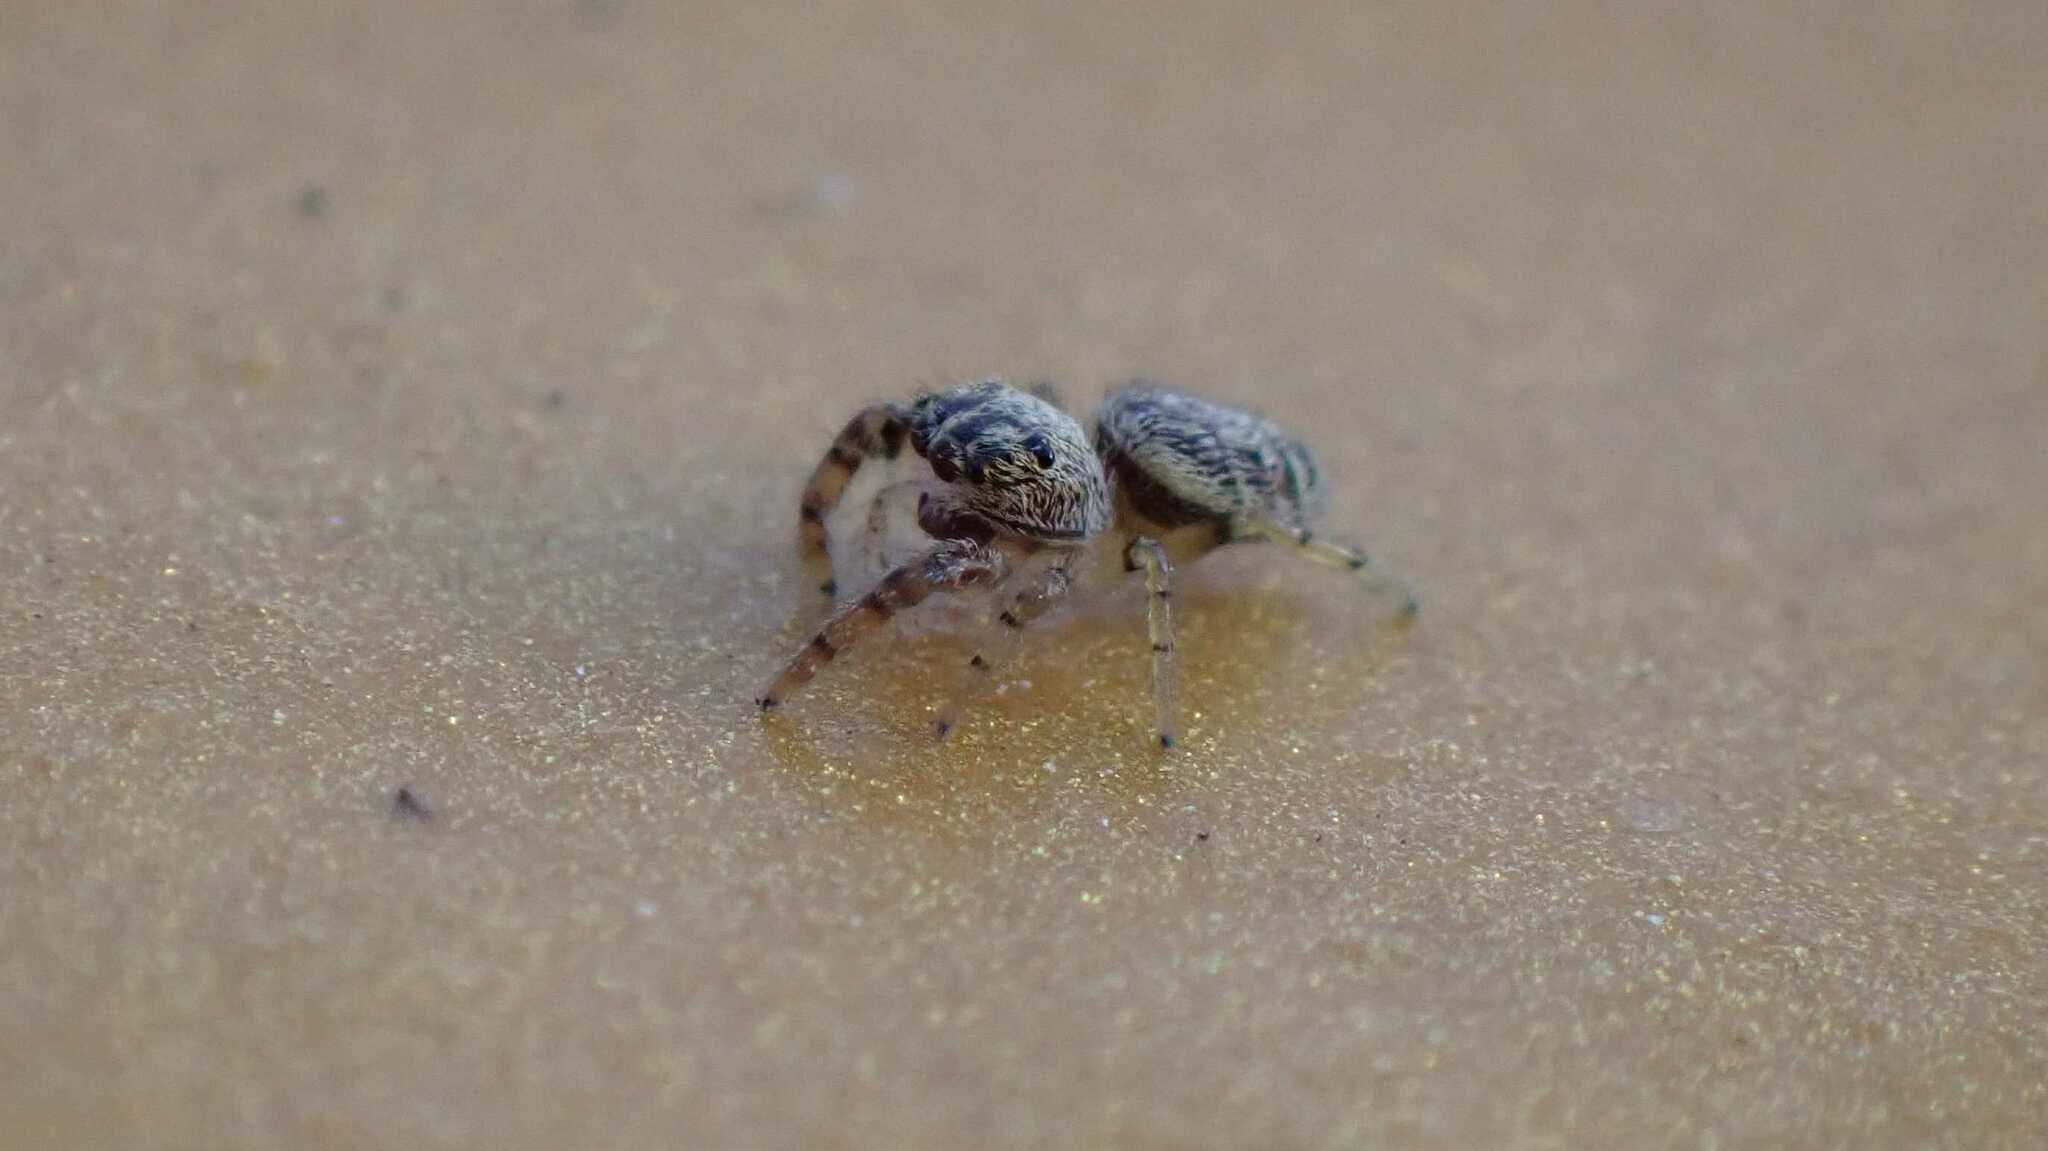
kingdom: Animalia
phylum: Arthropoda
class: Arachnida
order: Araneae
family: Salticidae
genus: Macaroeris
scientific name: Macaroeris nidicolens
